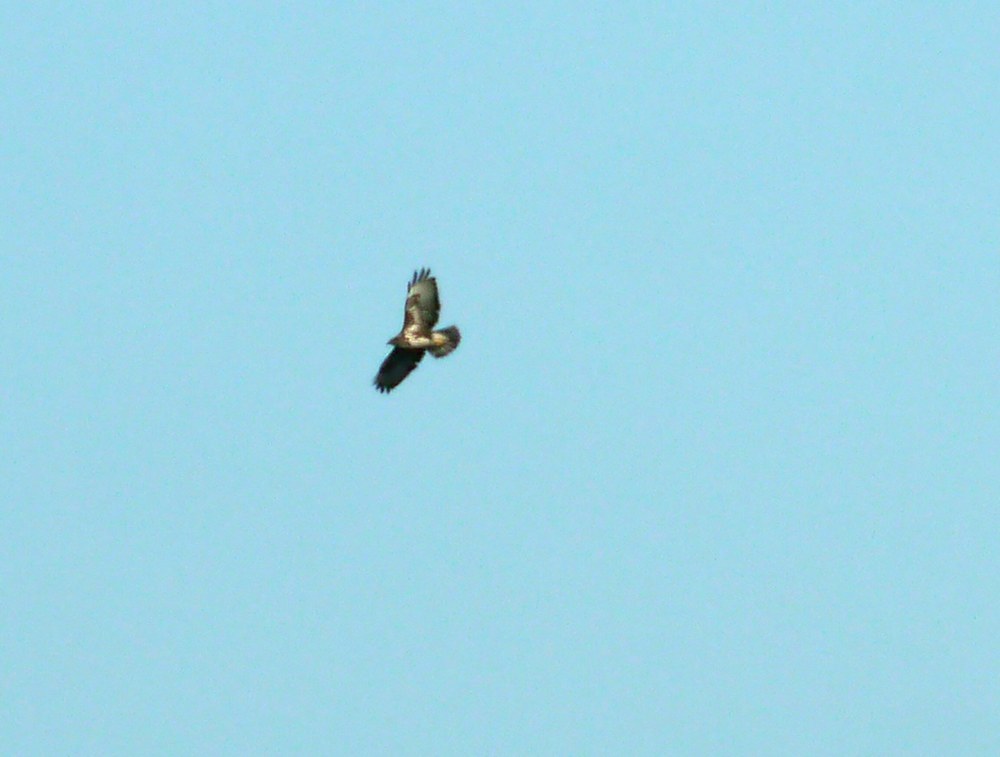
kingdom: Animalia
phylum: Chordata
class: Aves
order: Accipitriformes
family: Accipitridae
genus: Buteo
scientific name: Buteo buteo
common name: Common buzzard
